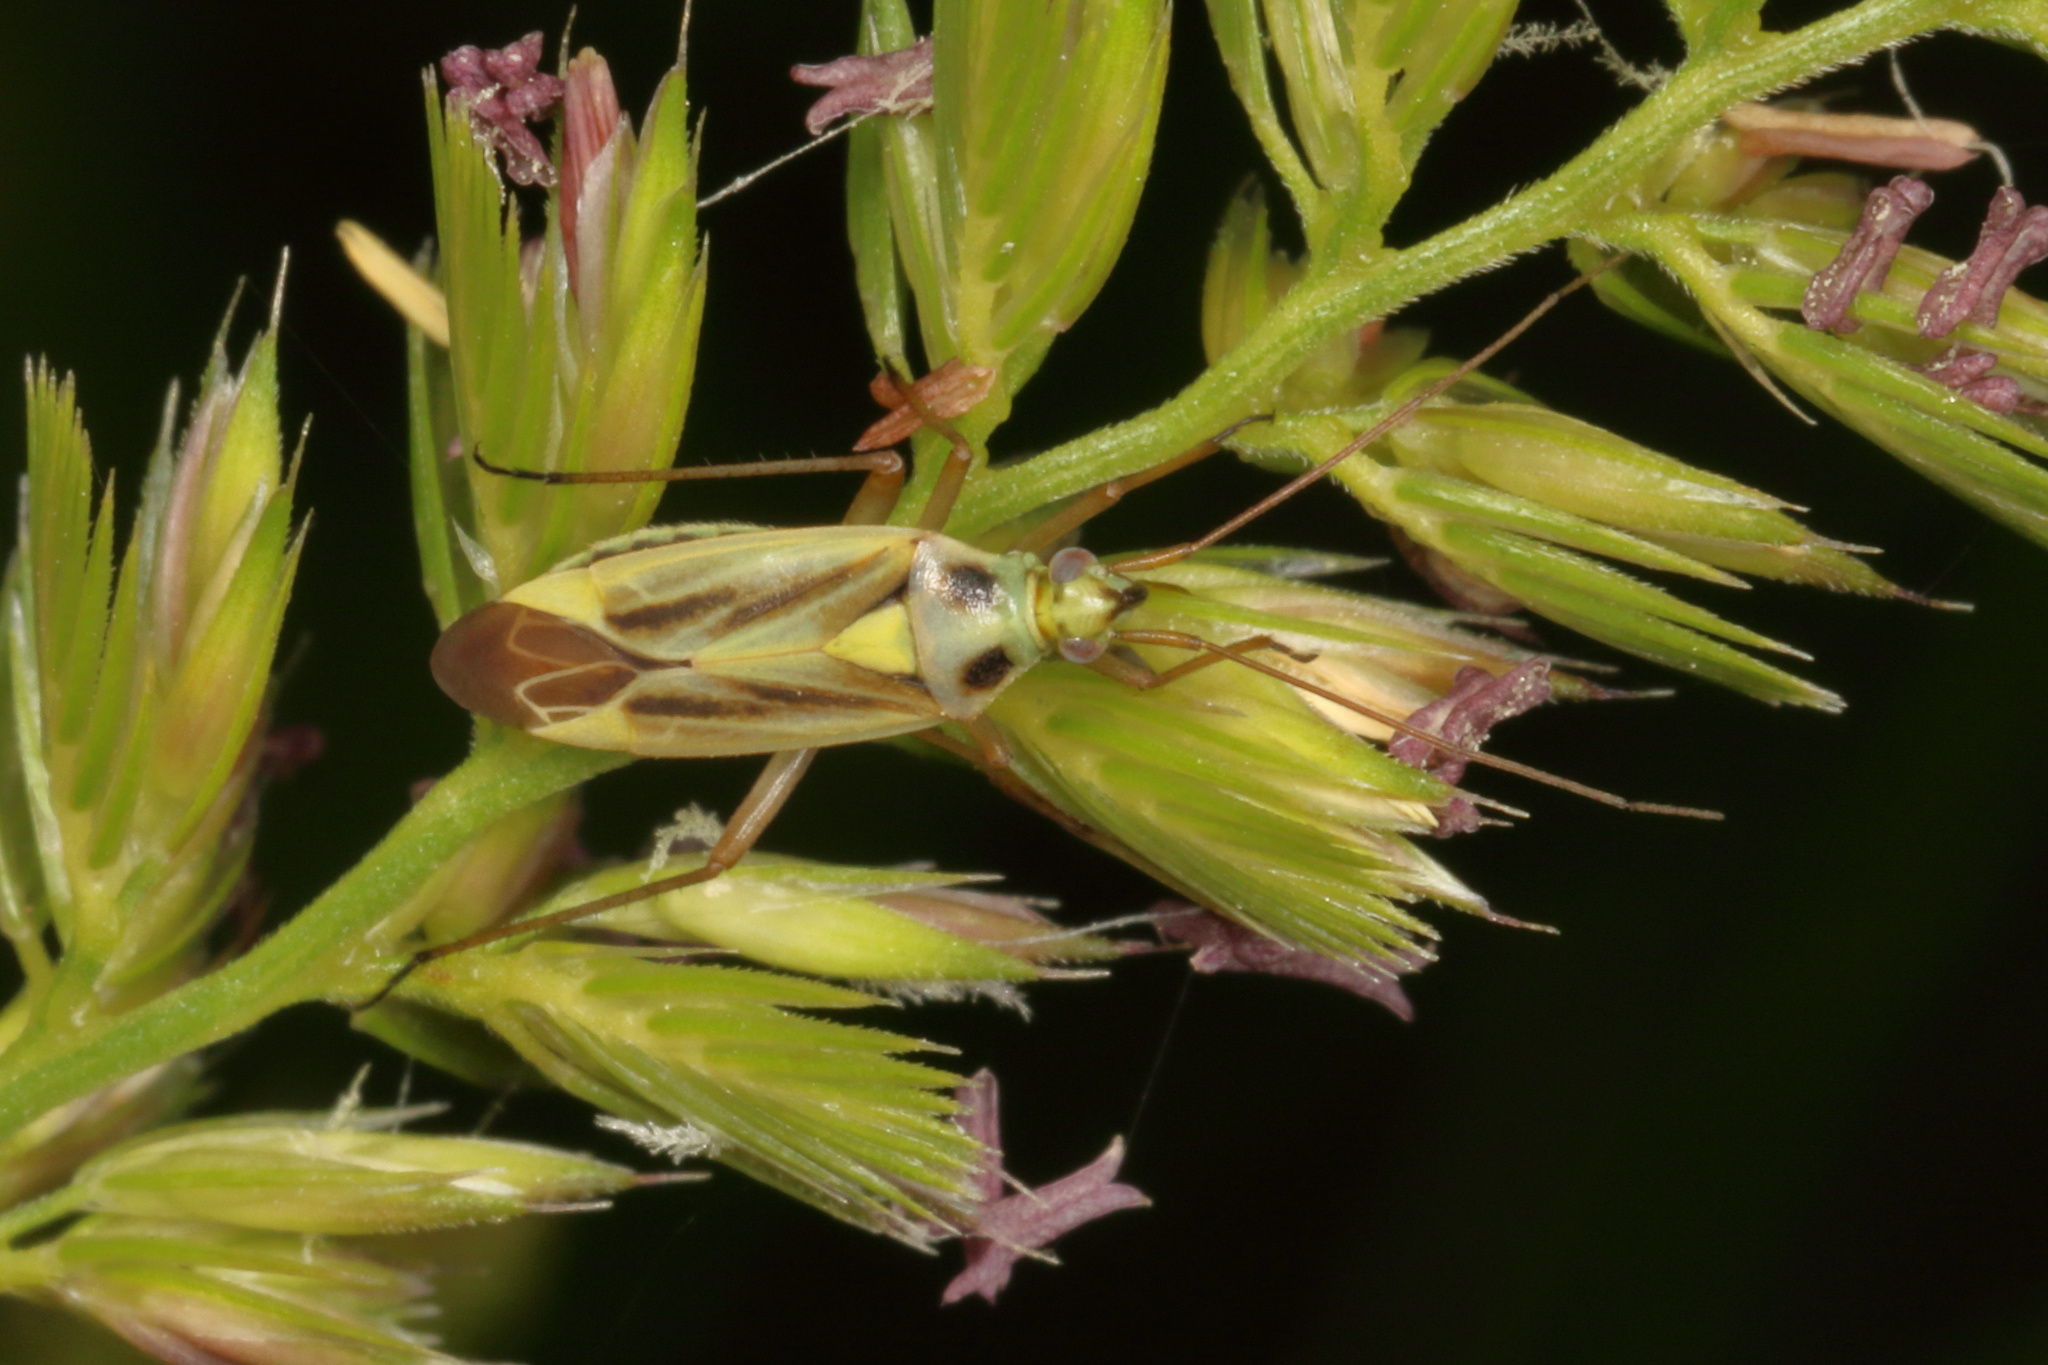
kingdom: Animalia
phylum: Arthropoda
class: Insecta
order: Hemiptera
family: Miridae
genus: Stenotus
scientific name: Stenotus binotatus
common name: Plant bug
